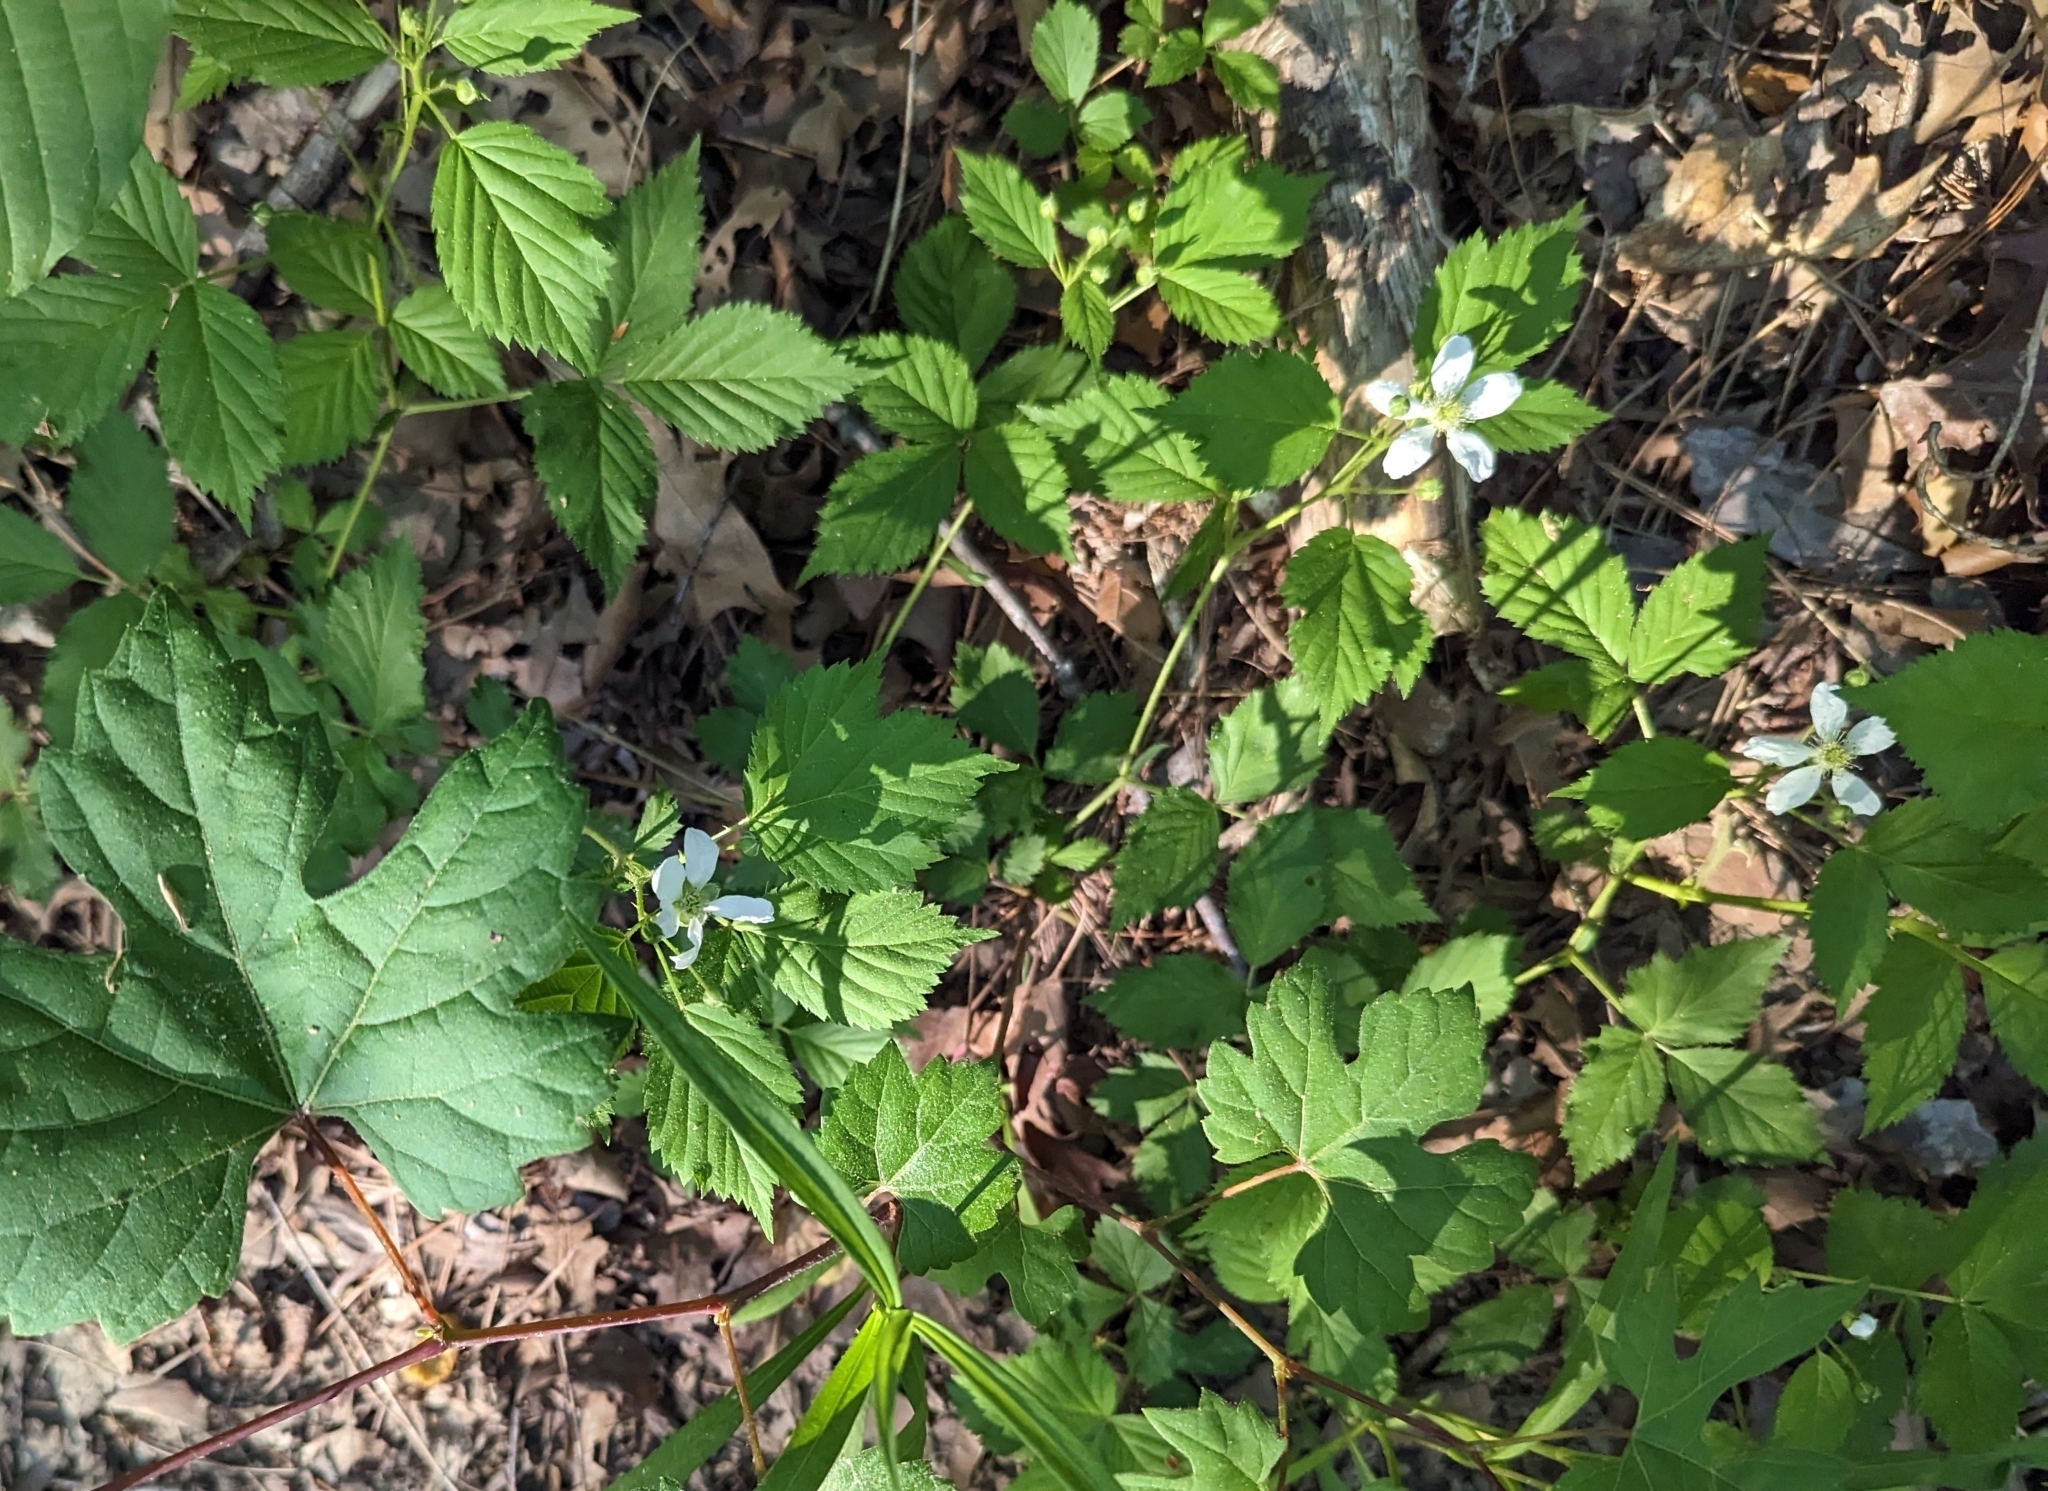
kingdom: Plantae
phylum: Tracheophyta
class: Magnoliopsida
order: Rosales
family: Rosaceae
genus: Rubus
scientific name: Rubus allegheniensis
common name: Allegheny blackberry
